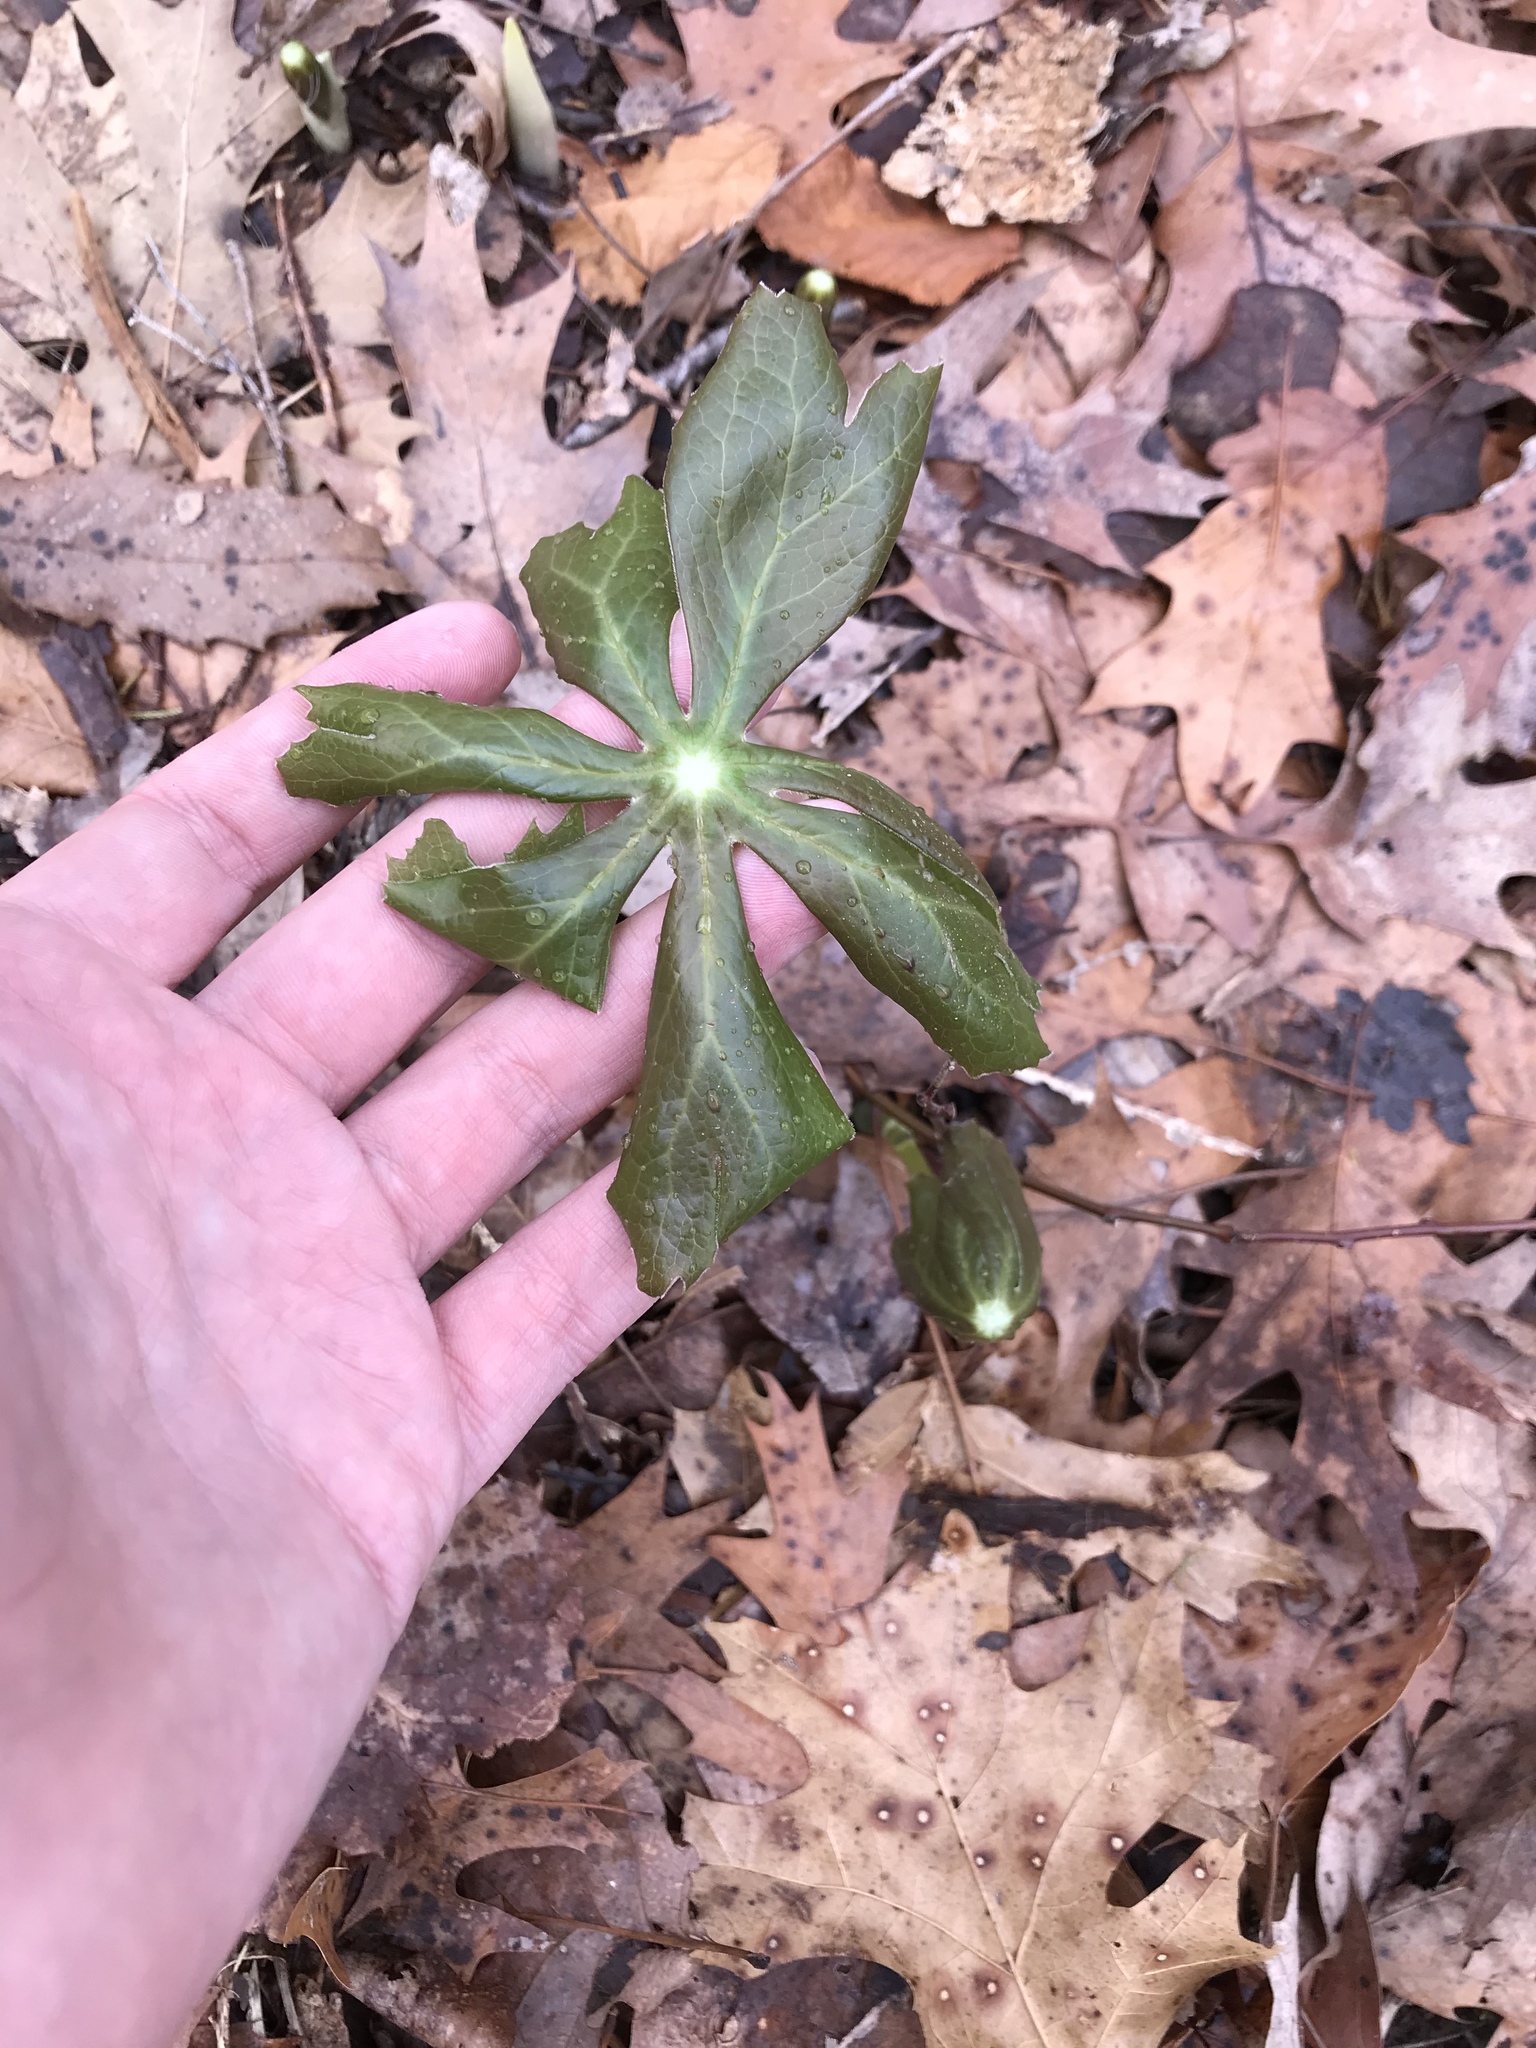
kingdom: Plantae
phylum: Tracheophyta
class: Magnoliopsida
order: Ranunculales
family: Berberidaceae
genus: Podophyllum
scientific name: Podophyllum peltatum
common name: Wild mandrake
